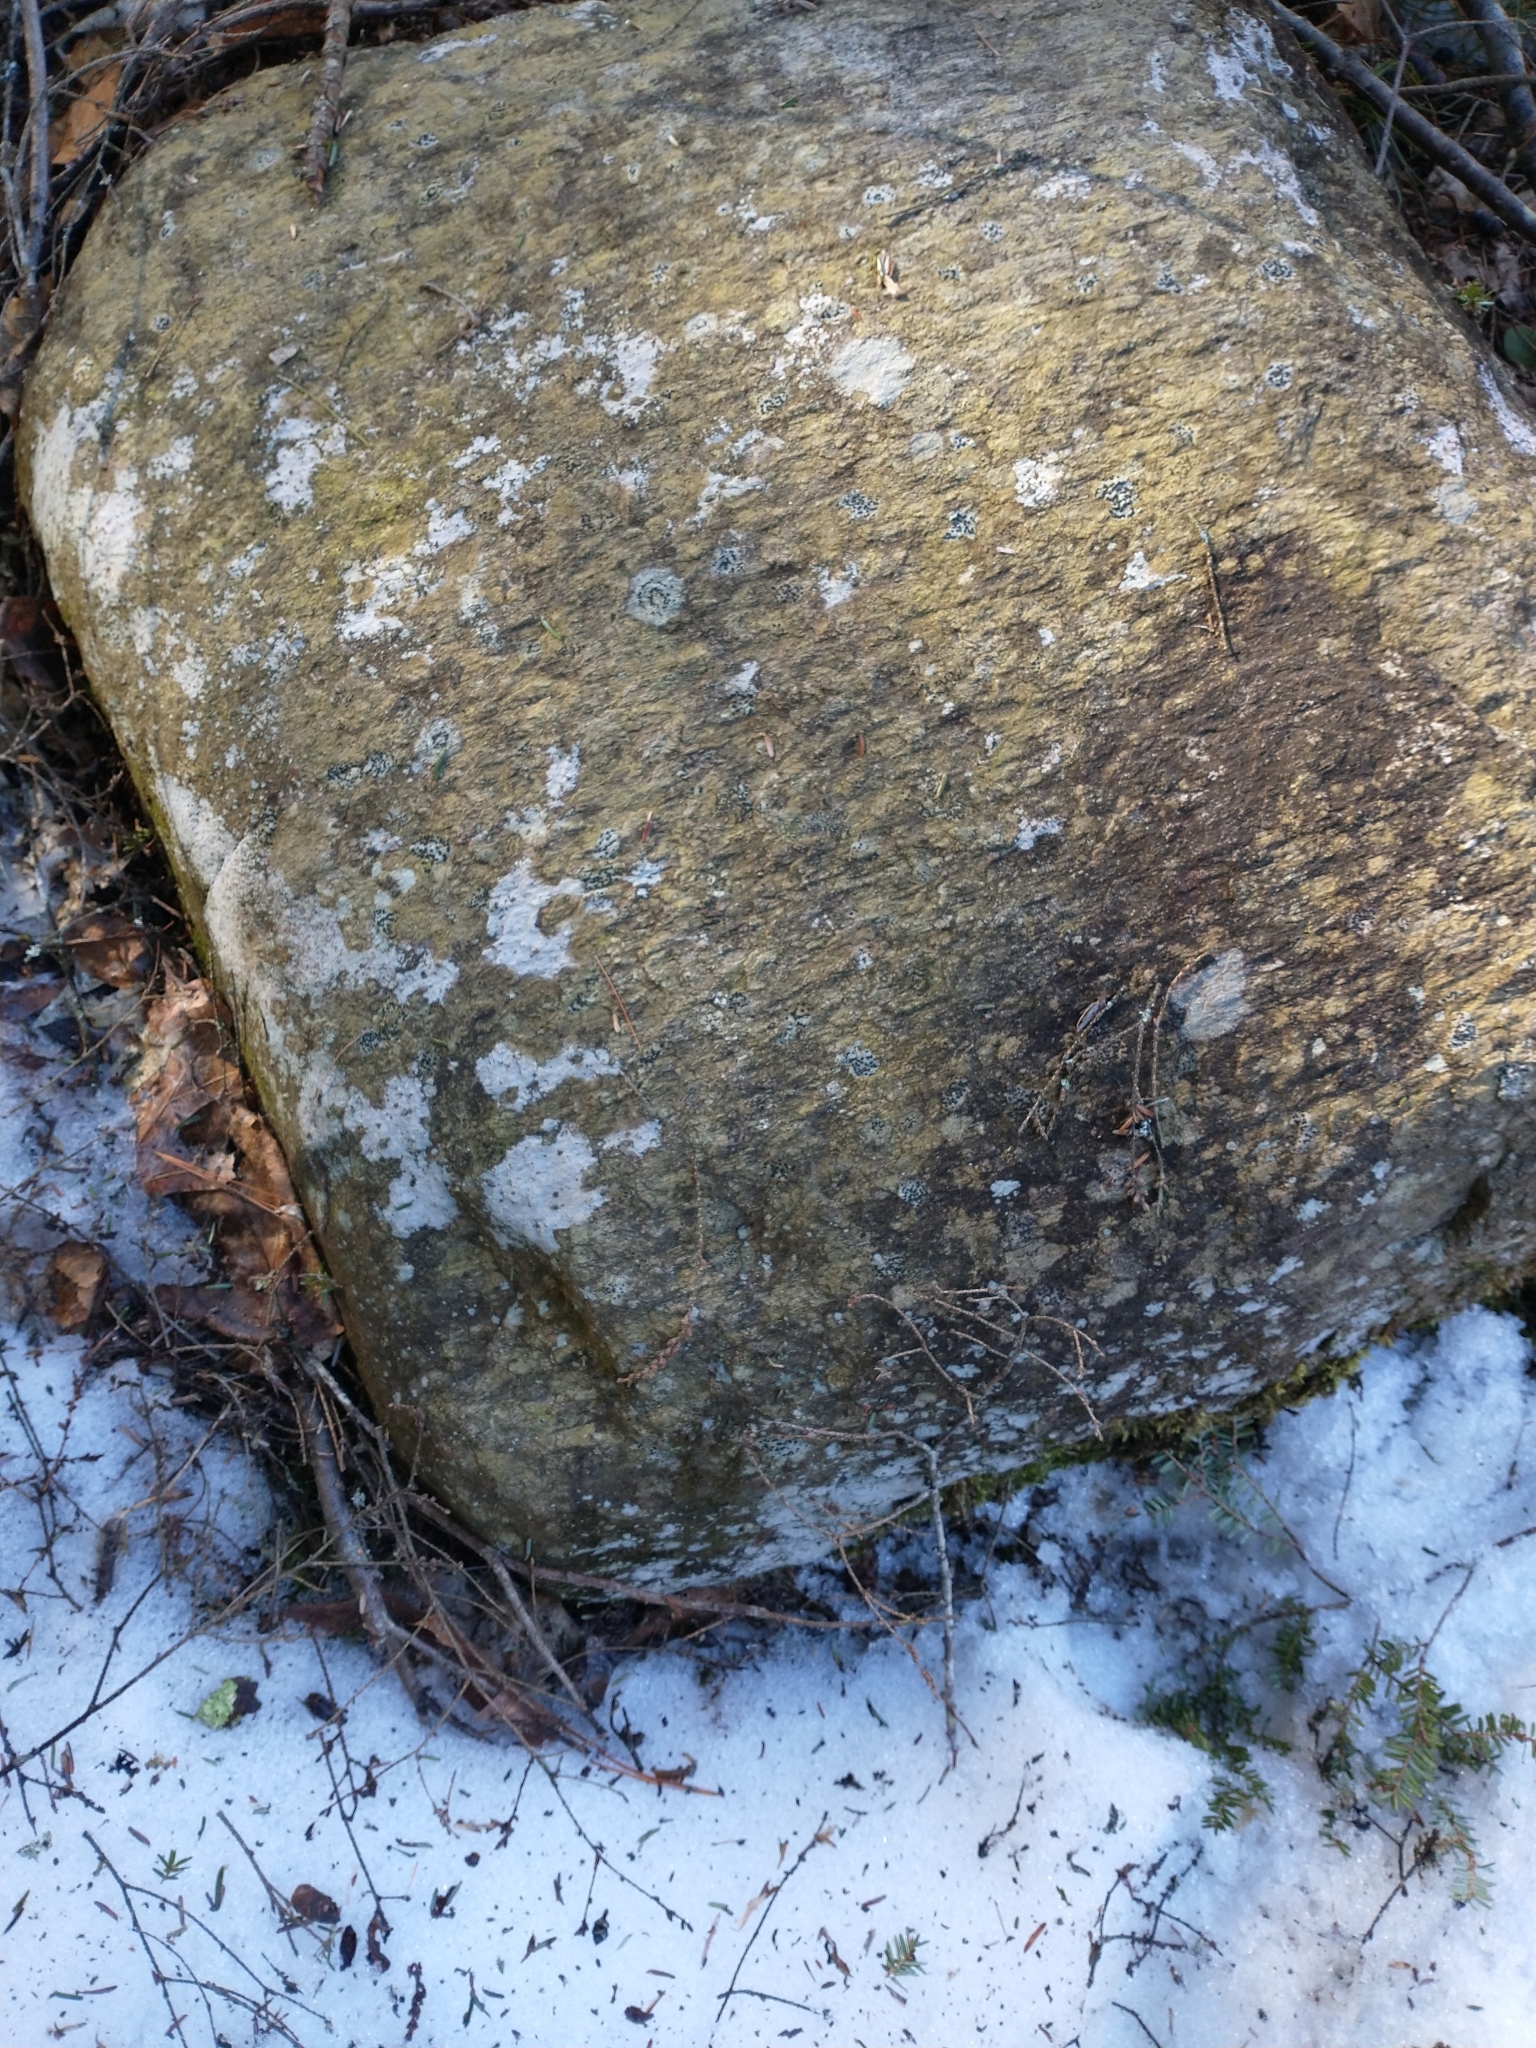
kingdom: Fungi
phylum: Ascomycota
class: Lecanoromycetes
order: Lecideales
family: Lecideaceae
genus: Porpidia
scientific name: Porpidia crustulata
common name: Concentric boulder lichen
